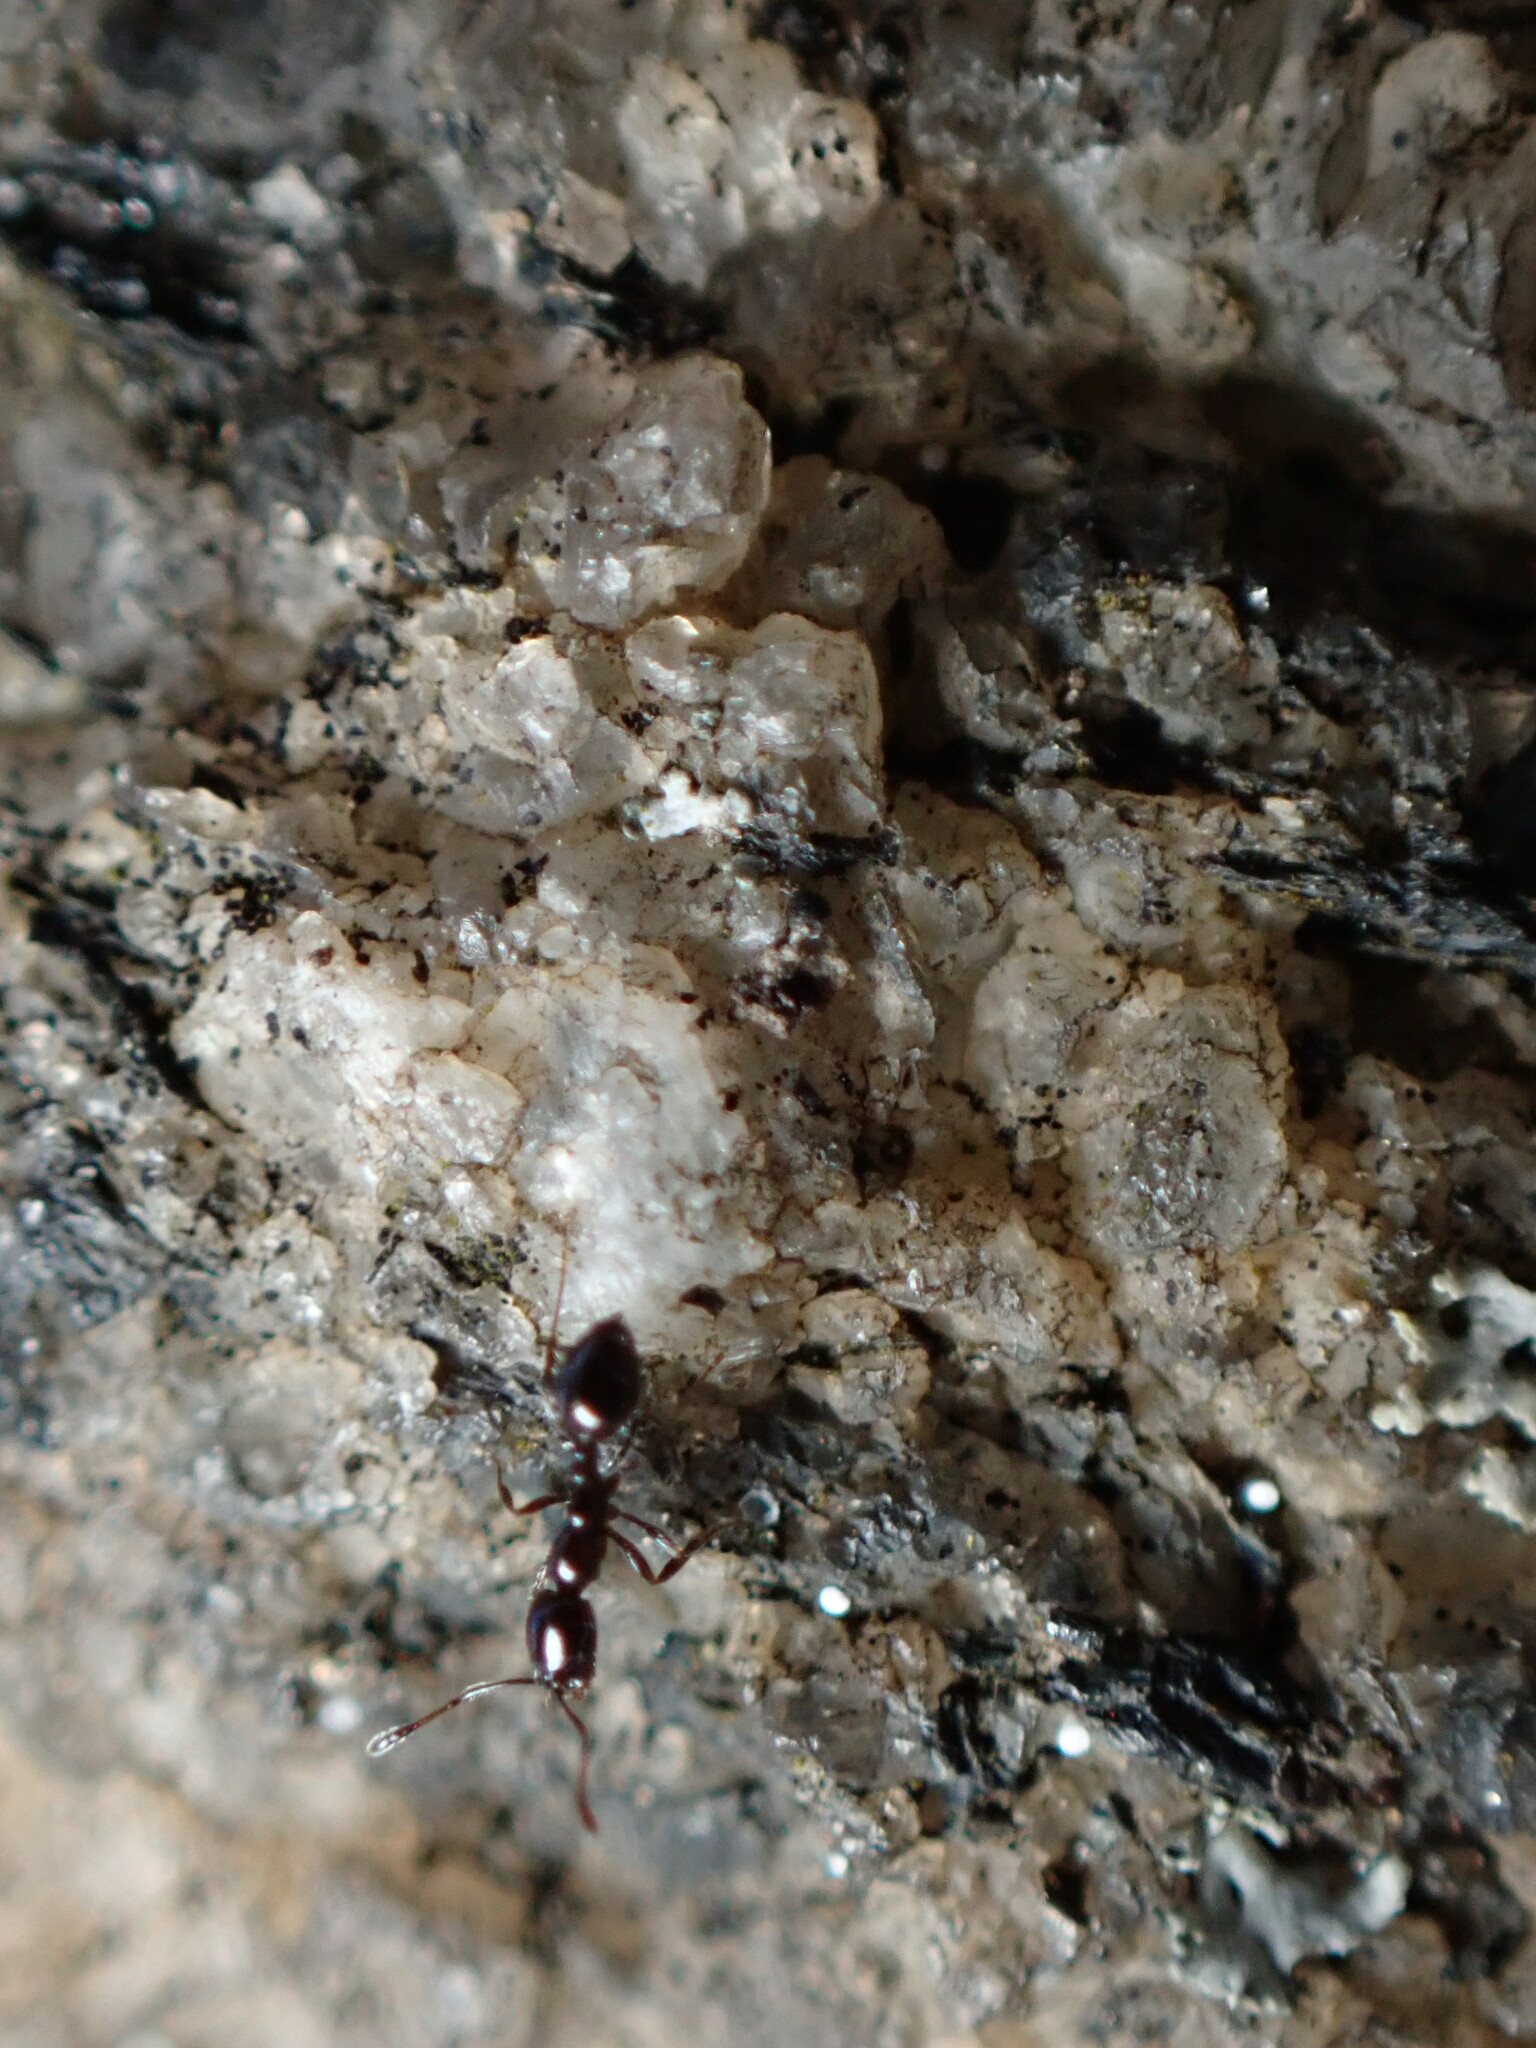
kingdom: Animalia
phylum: Arthropoda
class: Insecta
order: Hymenoptera
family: Formicidae
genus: Monomorium
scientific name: Monomorium
